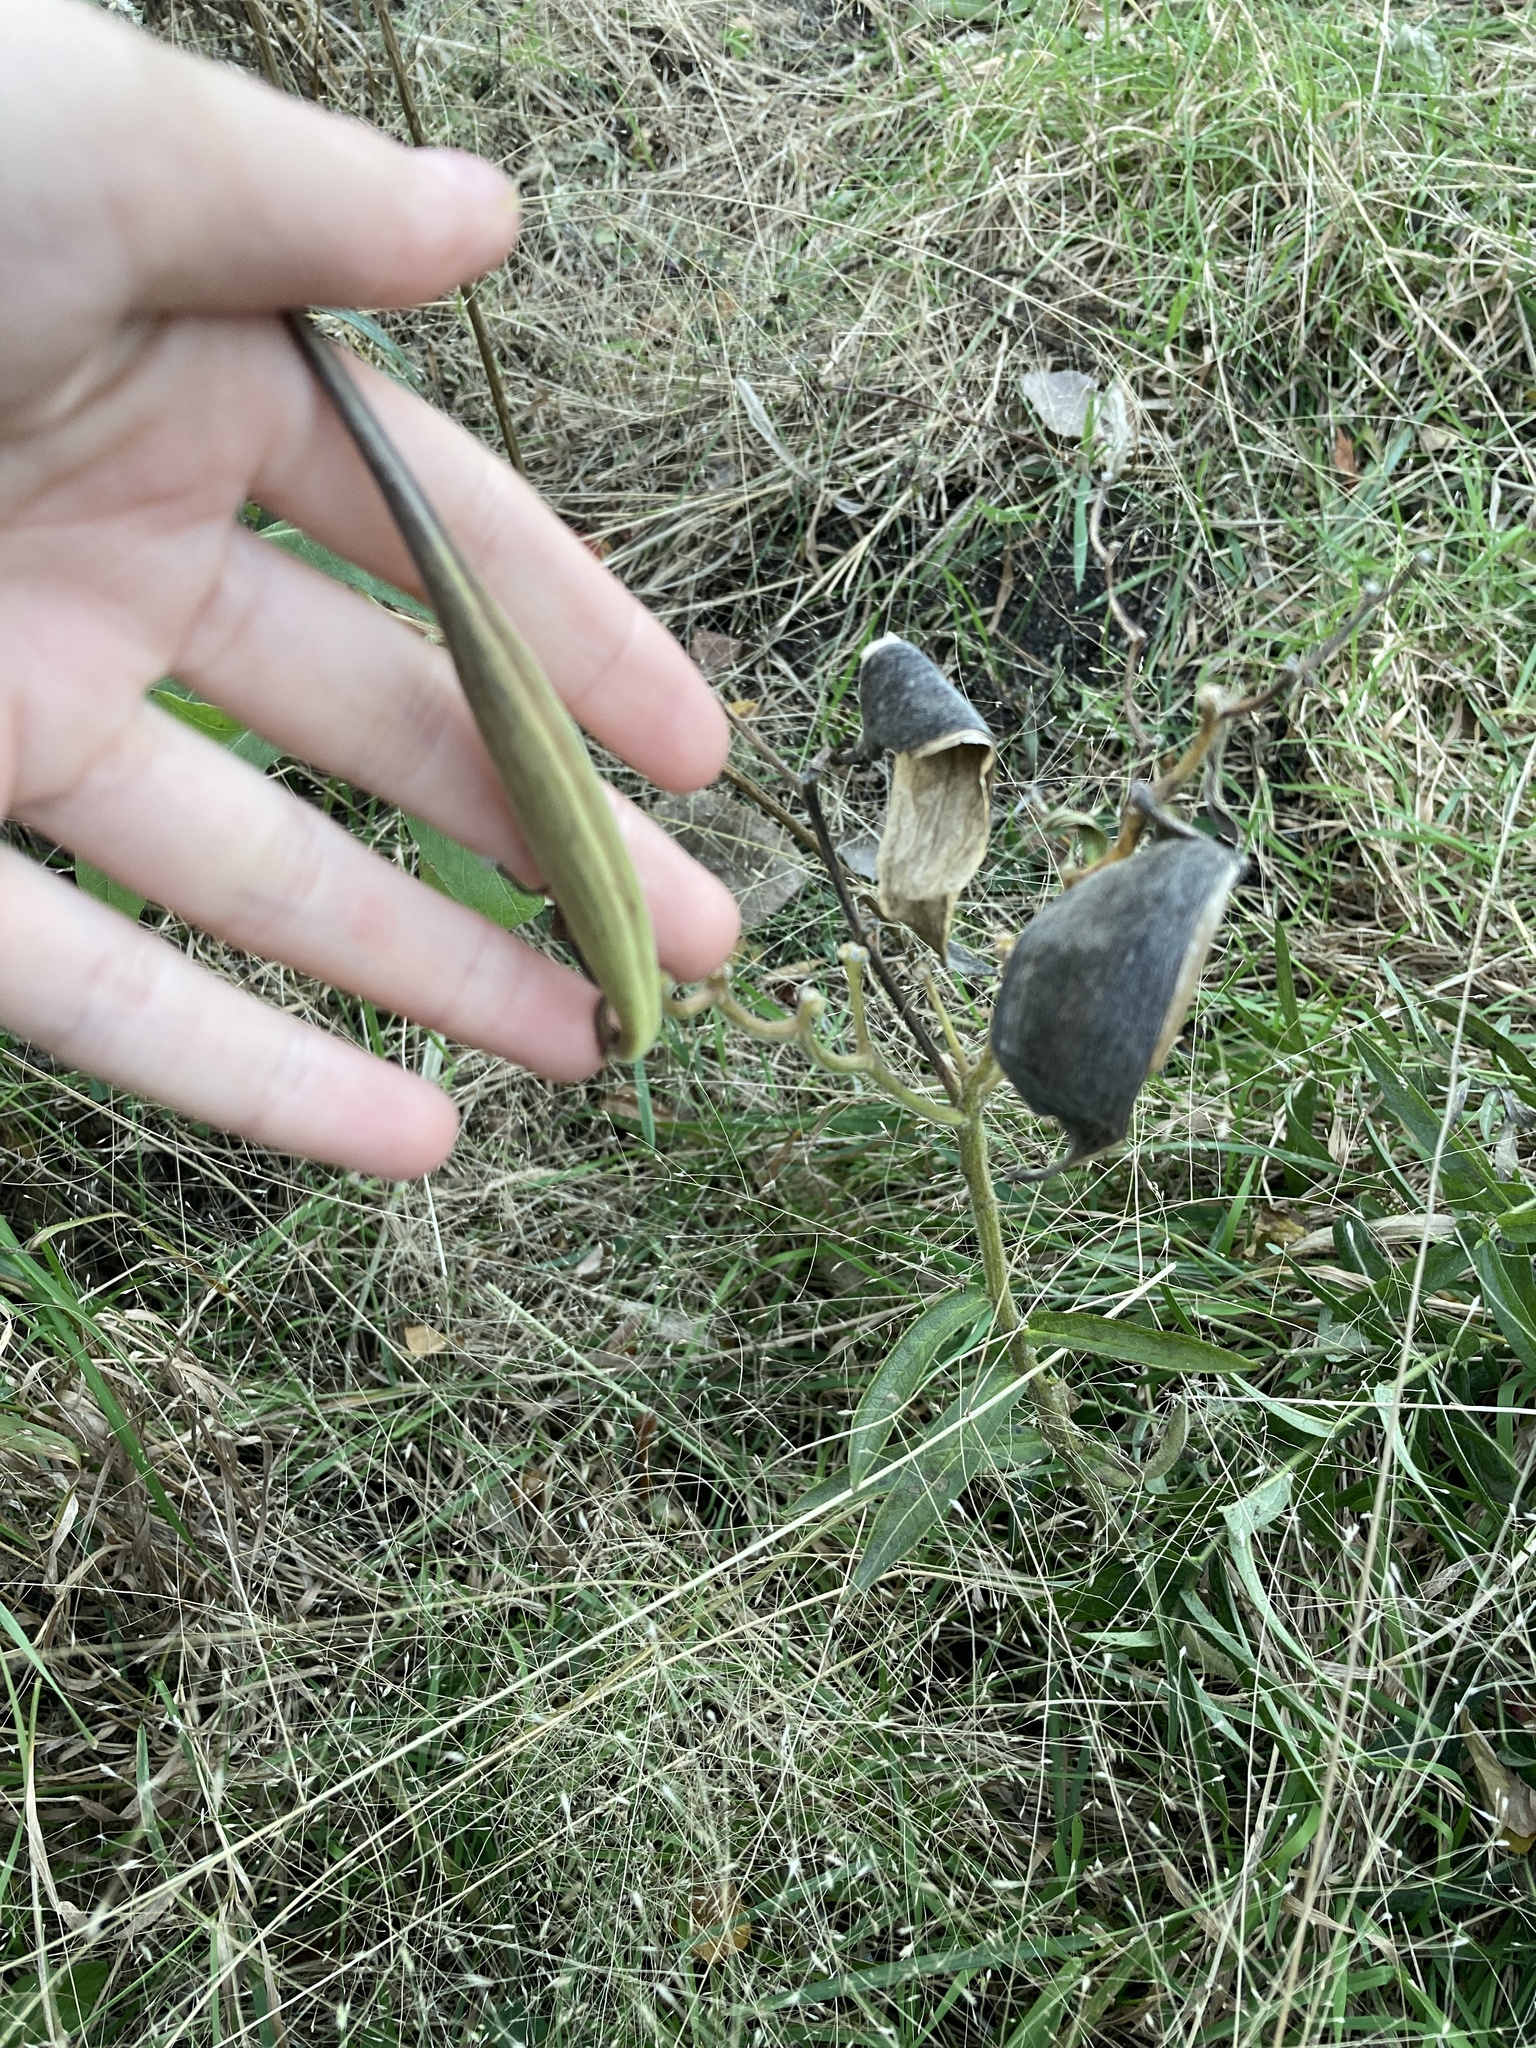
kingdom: Plantae
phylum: Tracheophyta
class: Magnoliopsida
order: Gentianales
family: Apocynaceae
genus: Asclepias
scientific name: Asclepias tuberosa
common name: Butterfly milkweed
